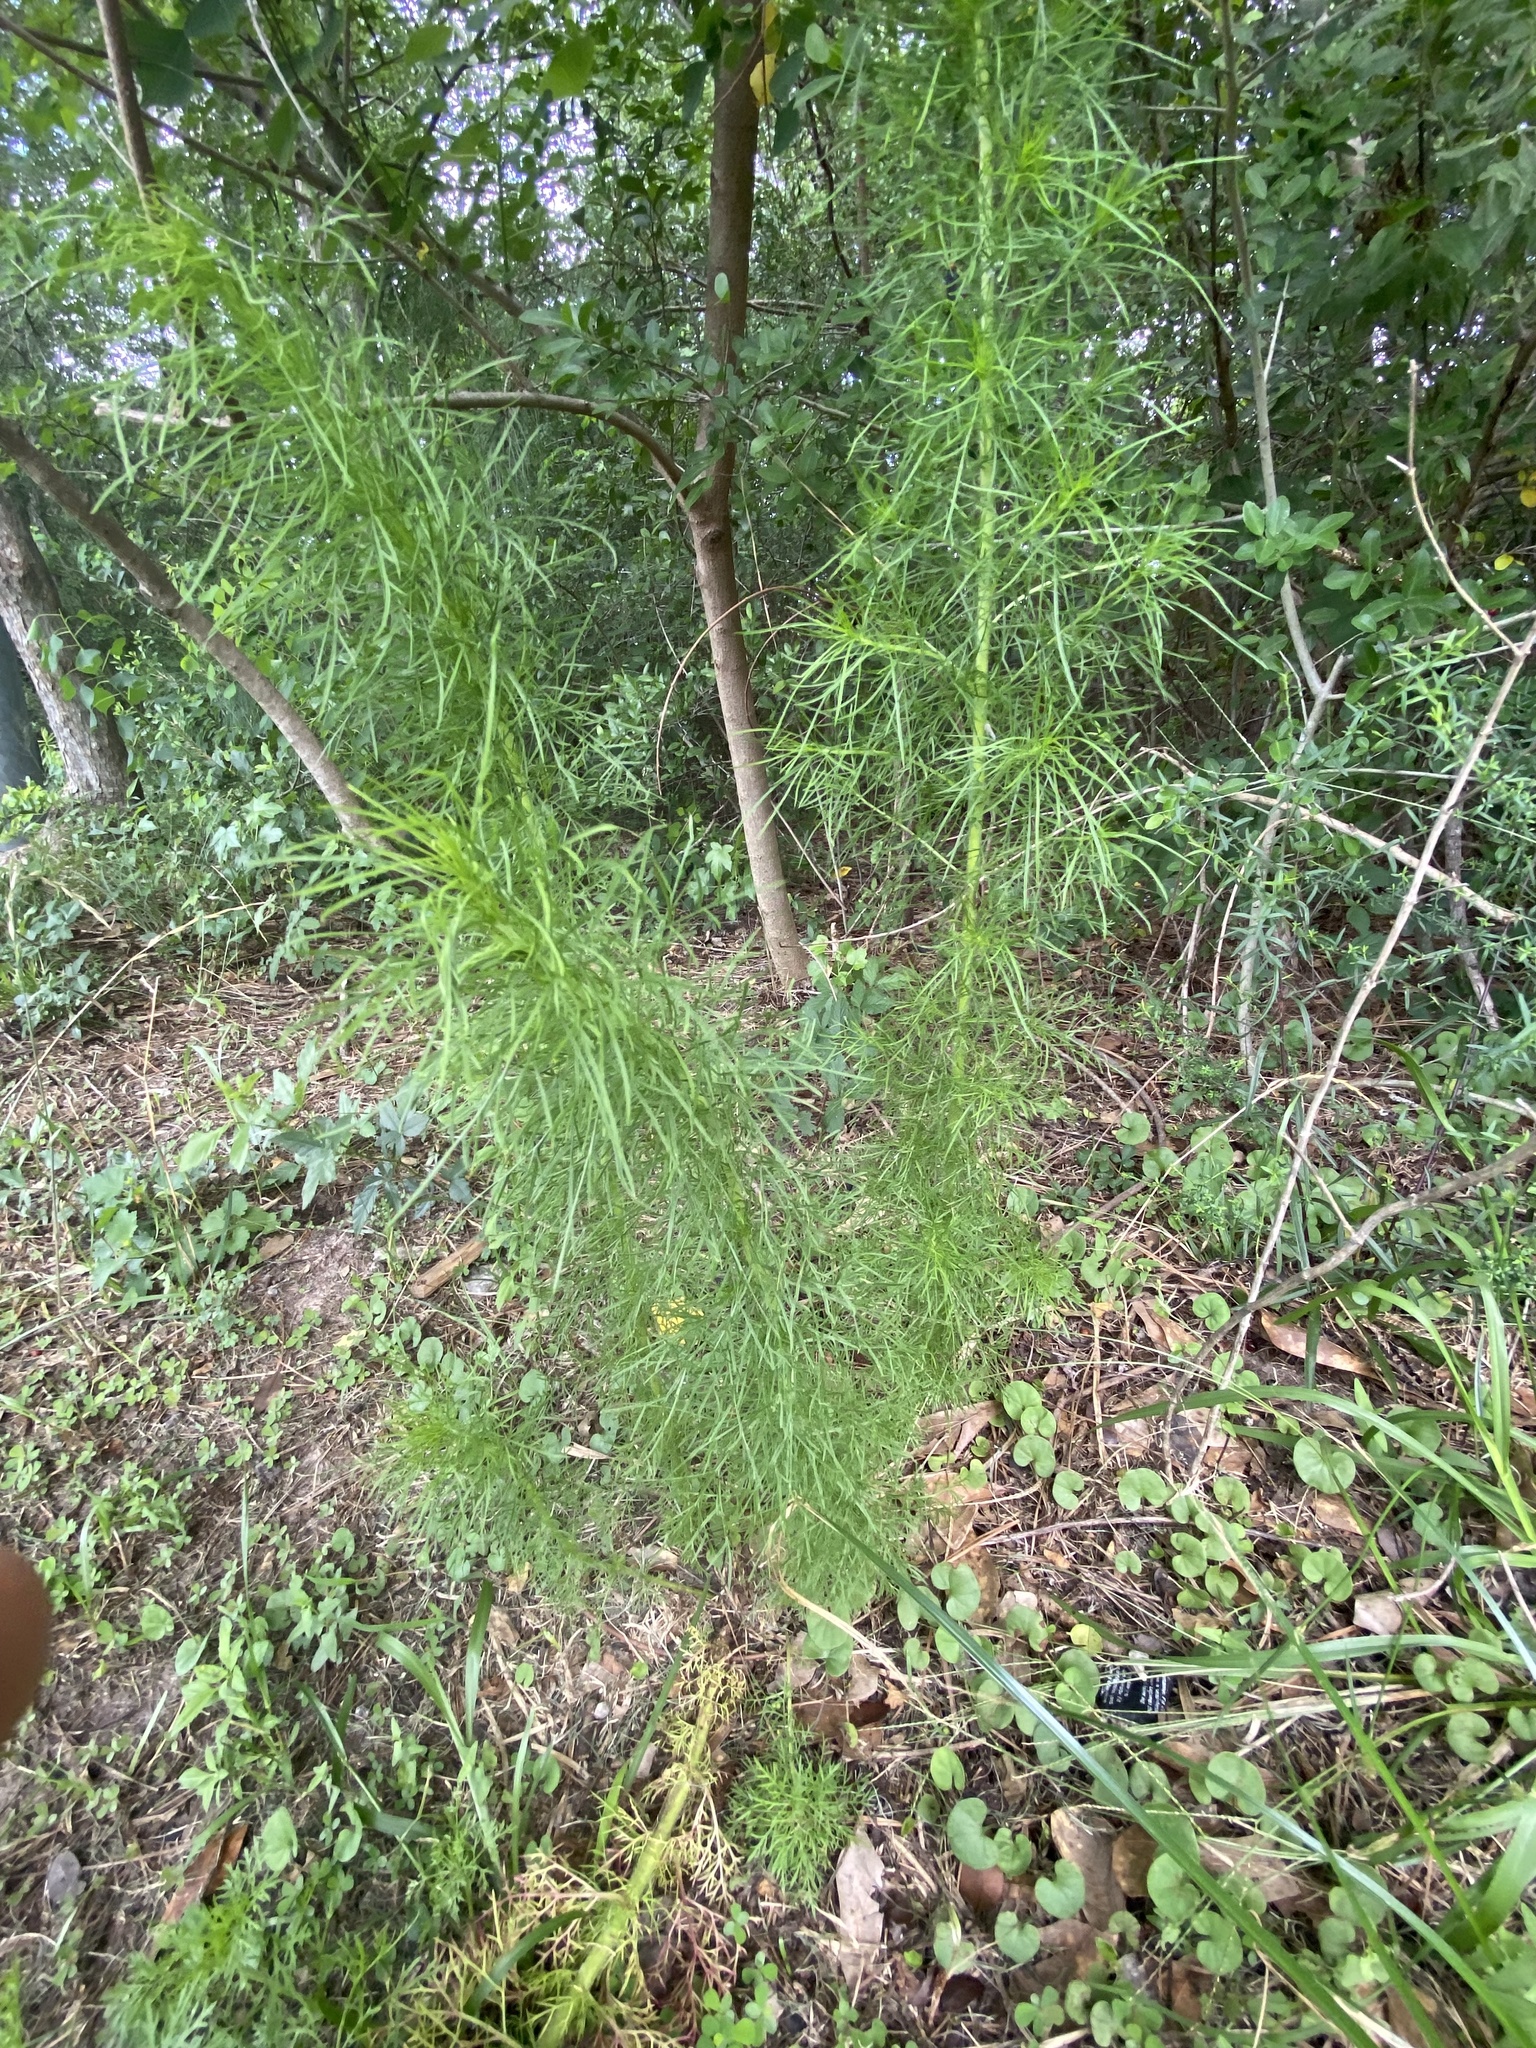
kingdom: Plantae
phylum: Tracheophyta
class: Magnoliopsida
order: Apiales
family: Apiaceae
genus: Foeniculum
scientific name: Foeniculum vulgare
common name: Fennel
